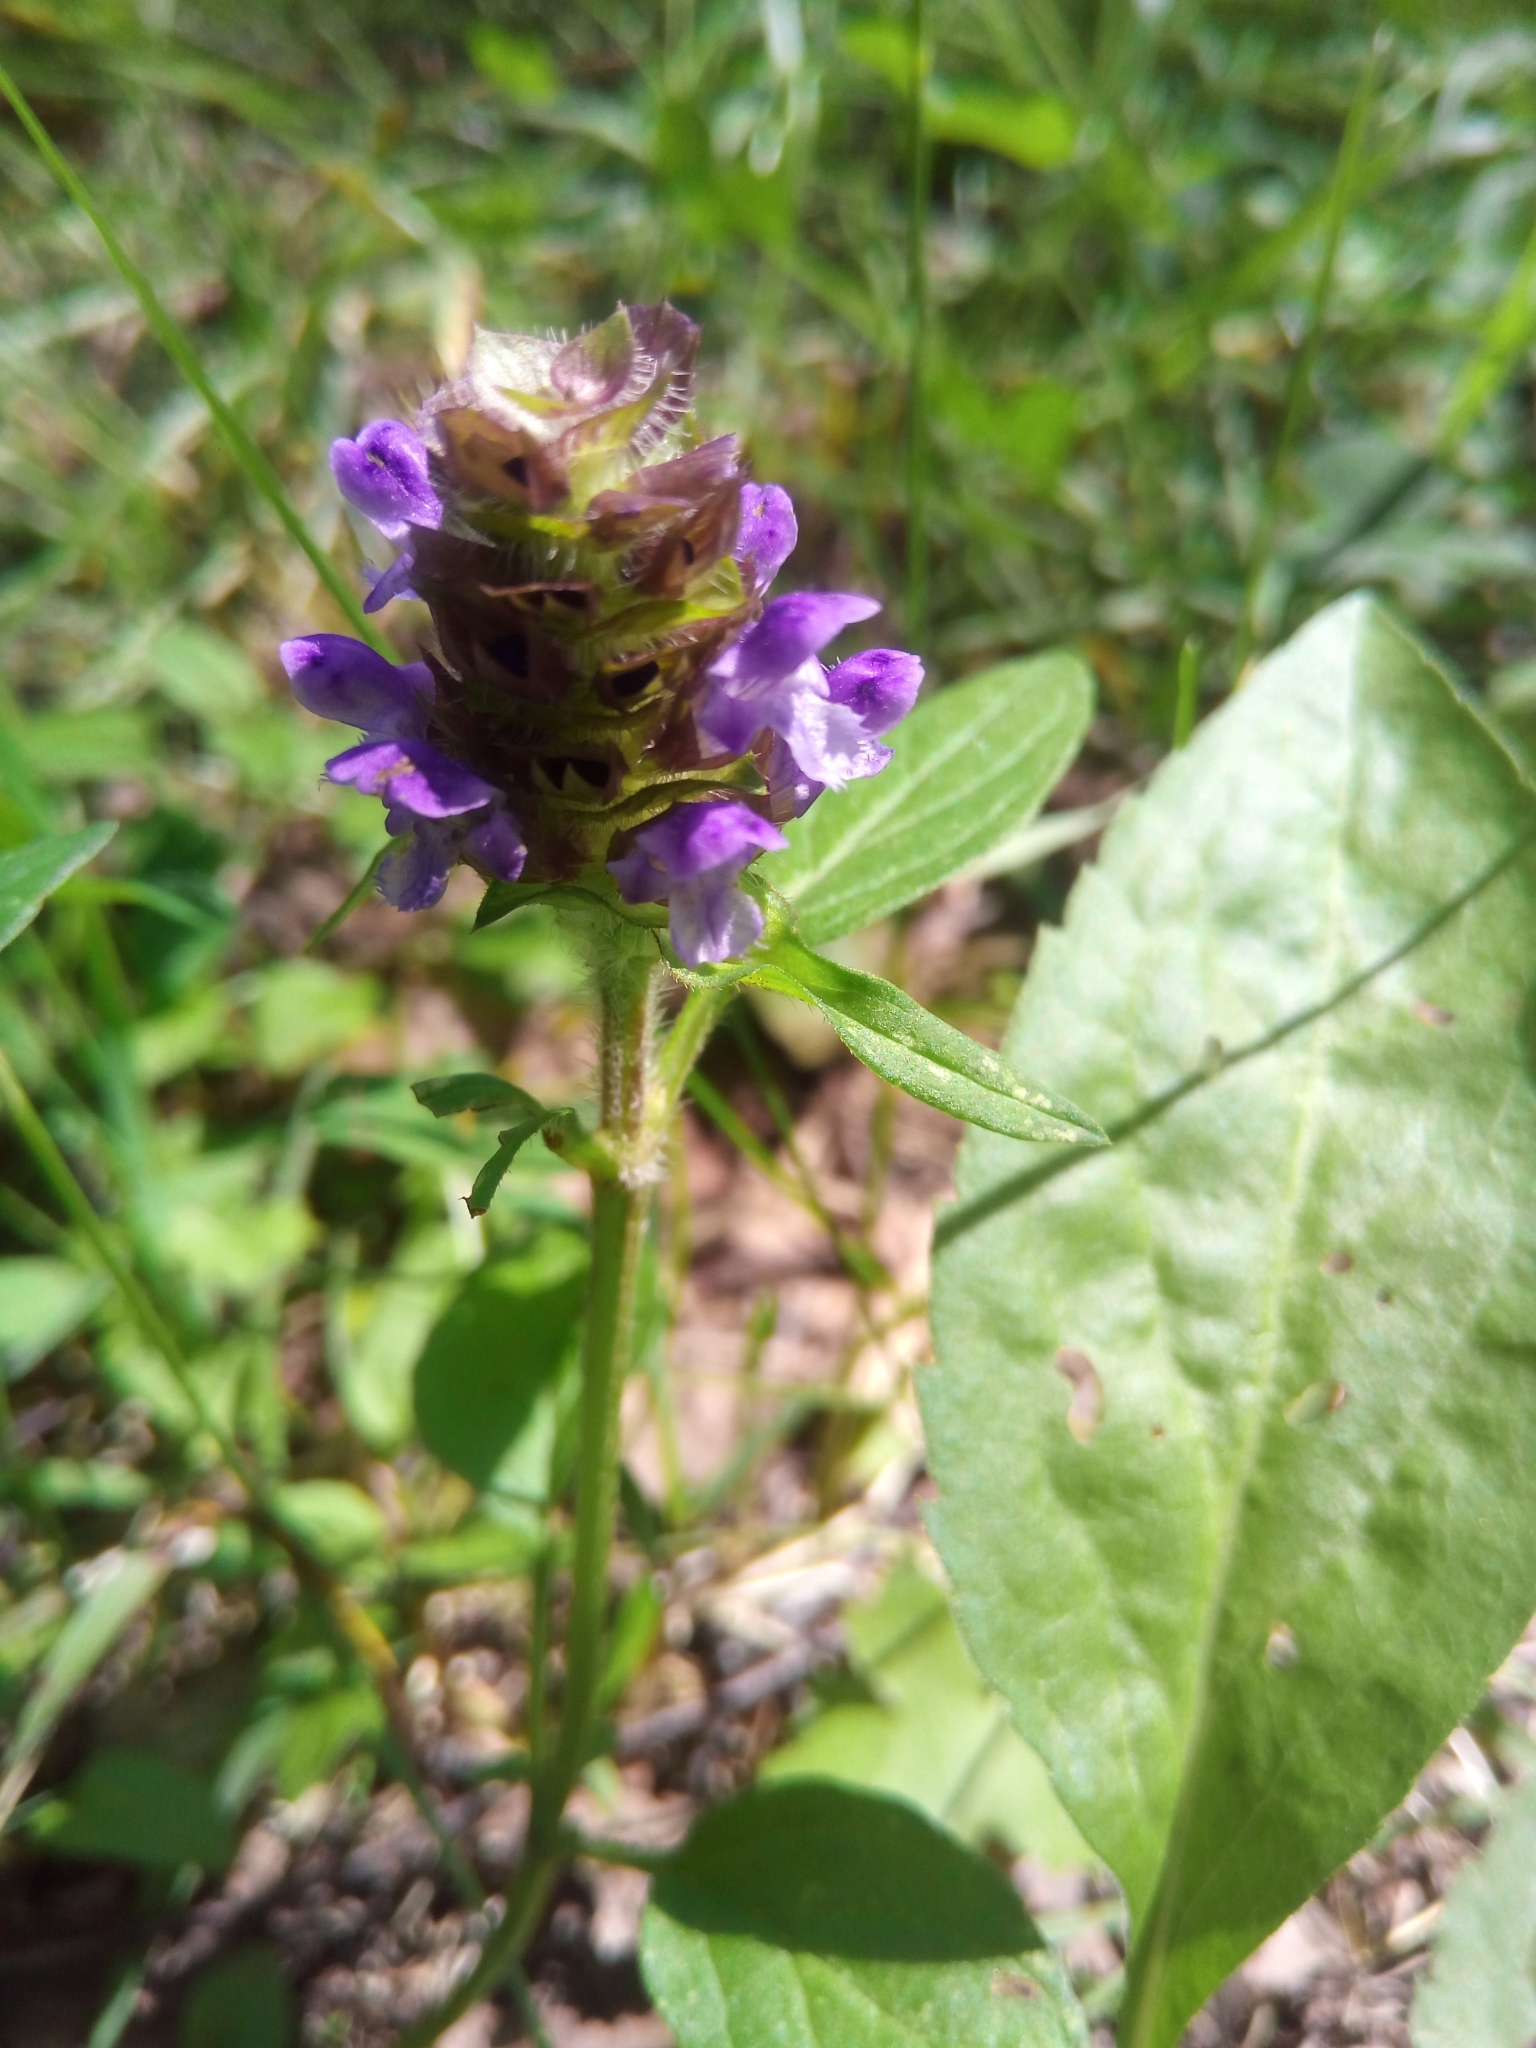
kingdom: Plantae
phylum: Tracheophyta
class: Magnoliopsida
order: Lamiales
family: Lamiaceae
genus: Prunella
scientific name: Prunella vulgaris
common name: Heal-all
